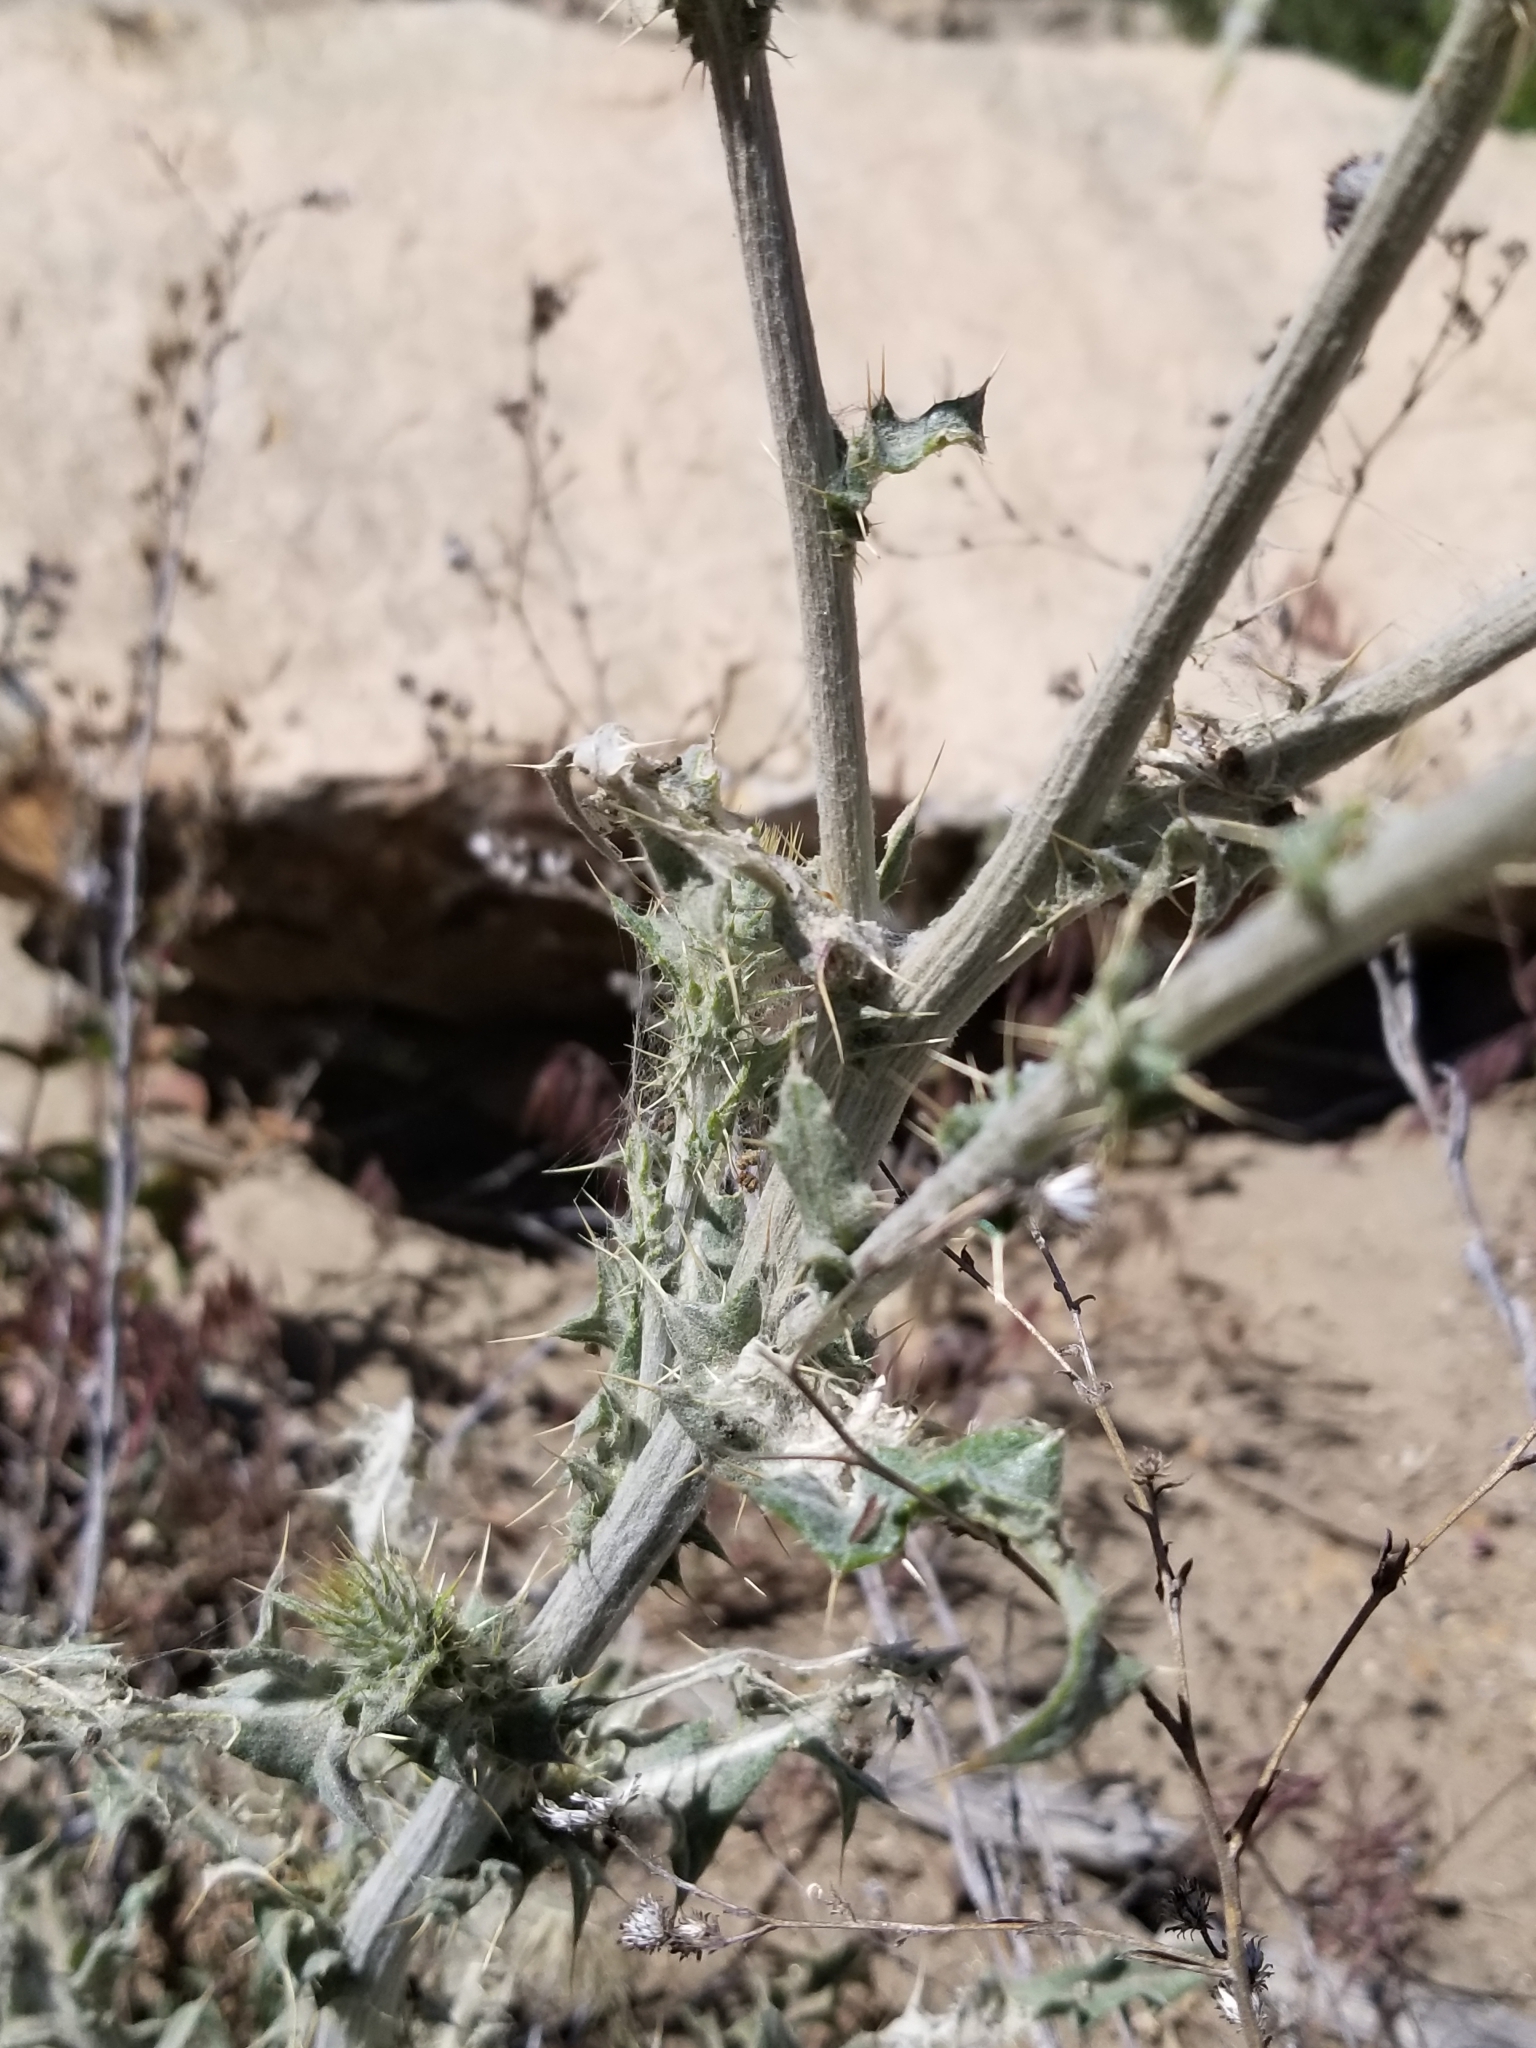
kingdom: Plantae
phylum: Tracheophyta
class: Magnoliopsida
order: Asterales
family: Asteraceae
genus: Cirsium
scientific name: Cirsium occidentale
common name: Western thistle
